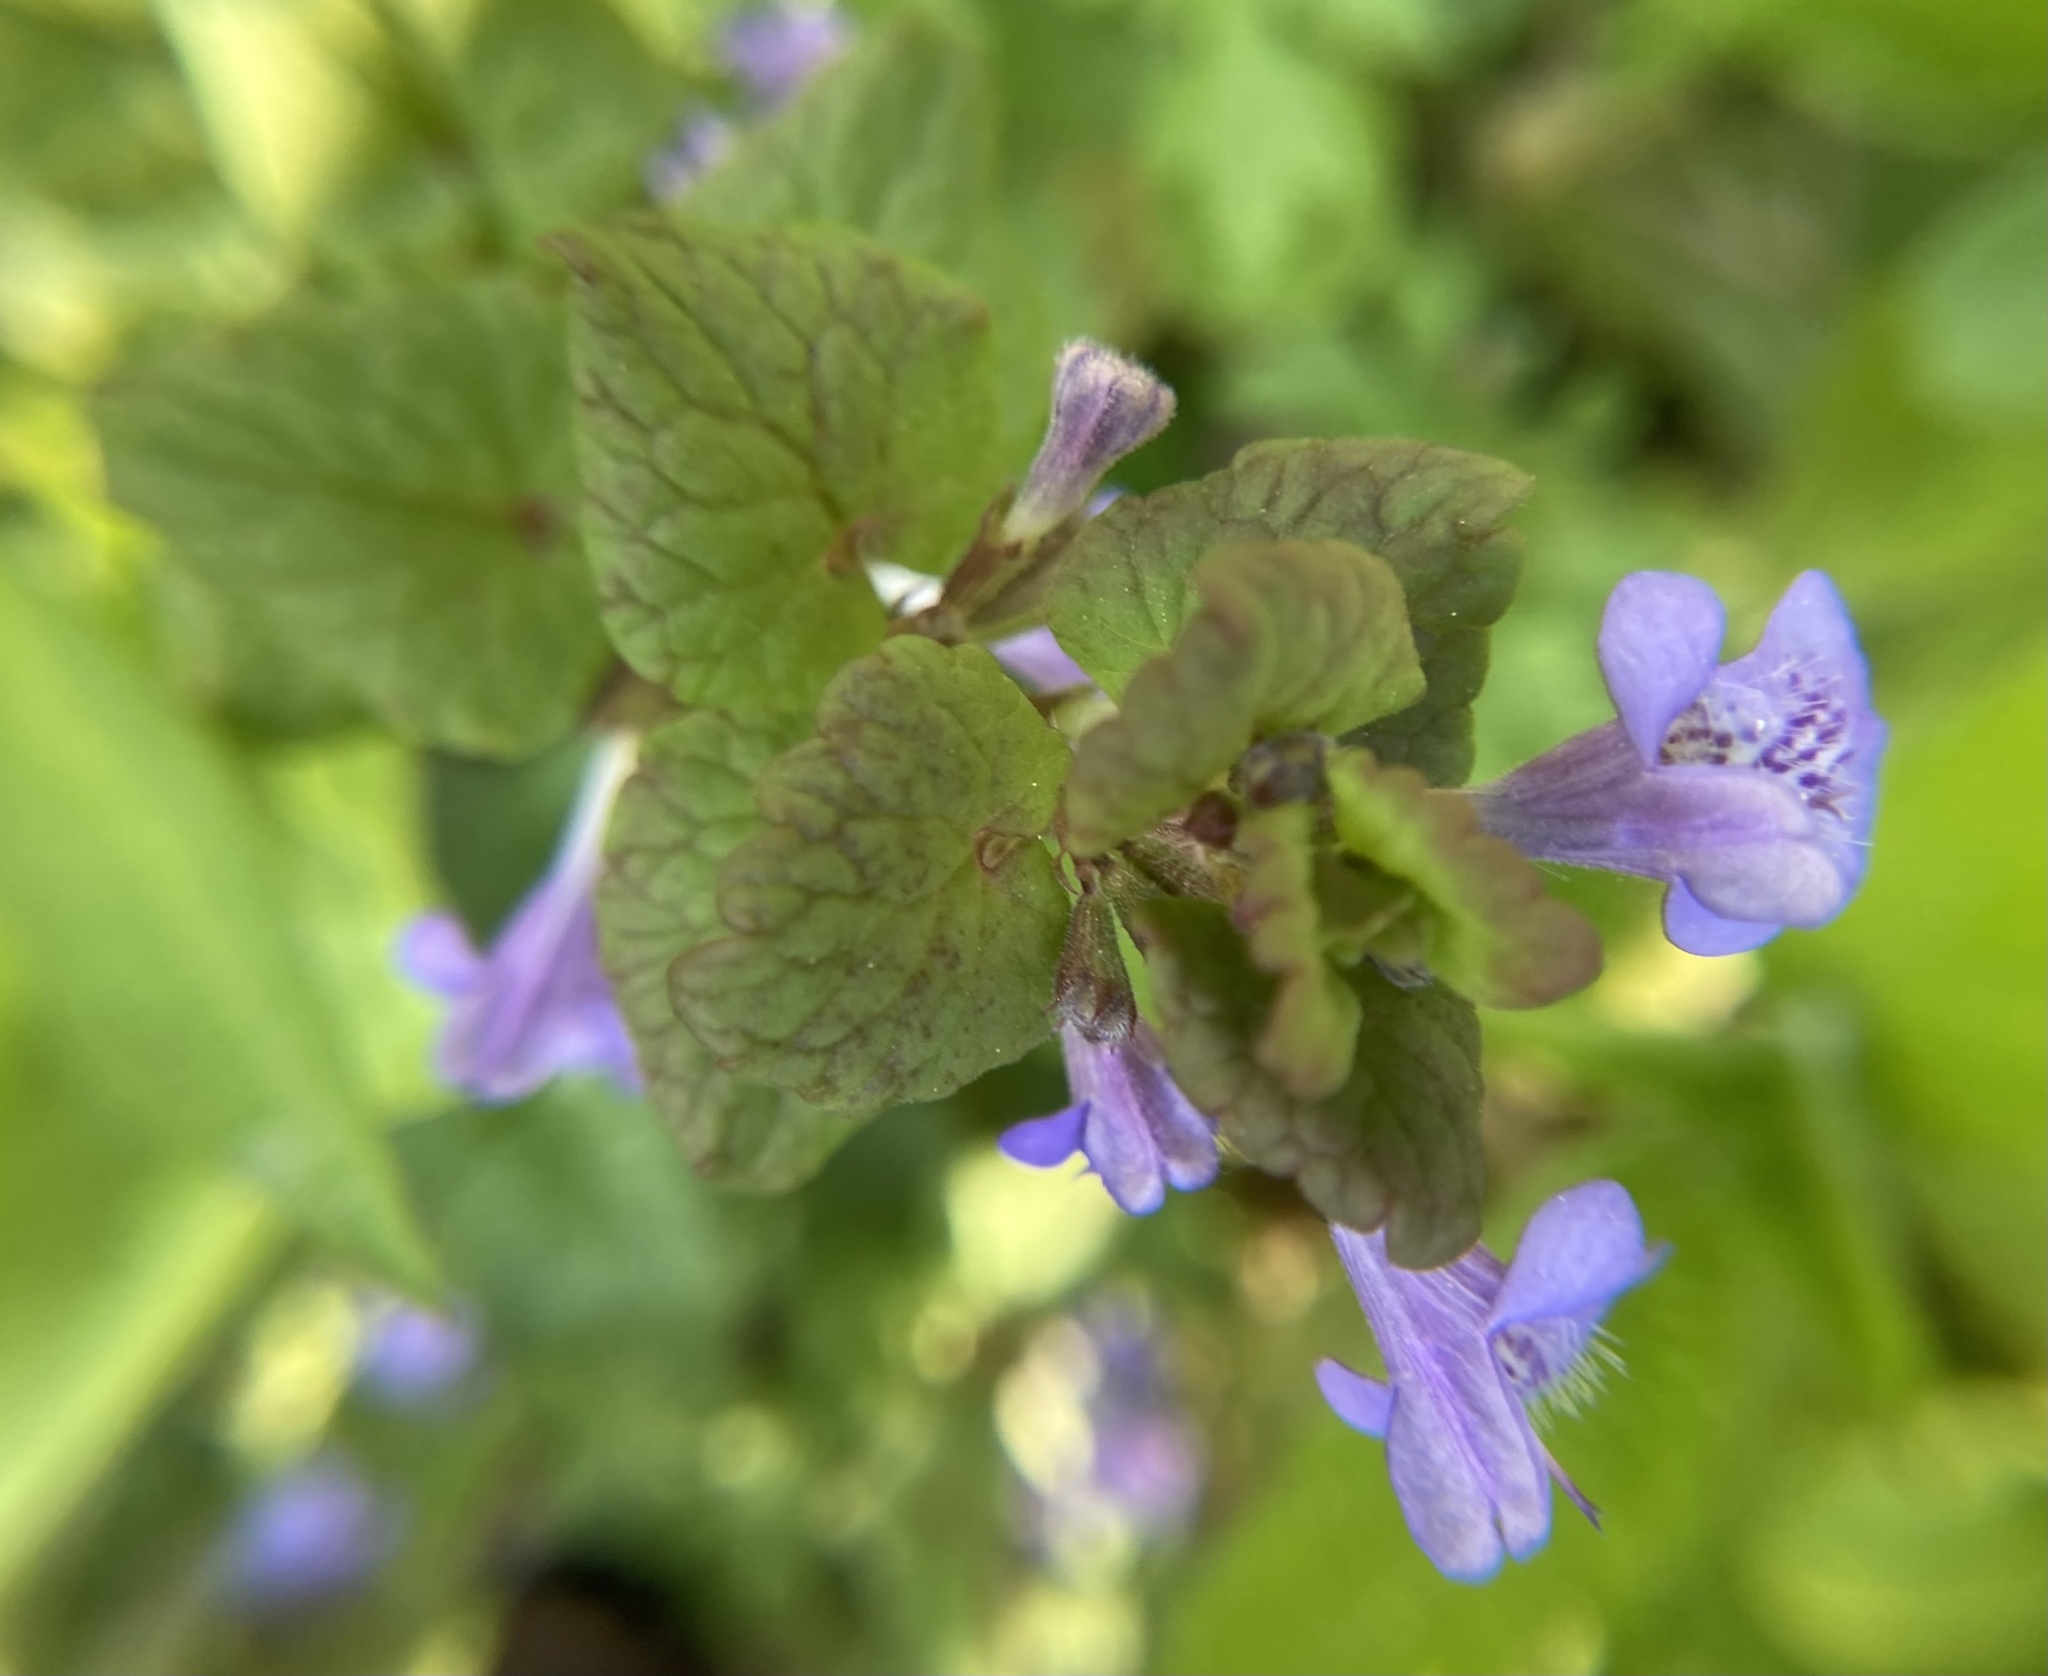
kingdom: Plantae
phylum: Tracheophyta
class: Magnoliopsida
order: Lamiales
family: Lamiaceae
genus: Glechoma
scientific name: Glechoma hederacea
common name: Ground ivy
